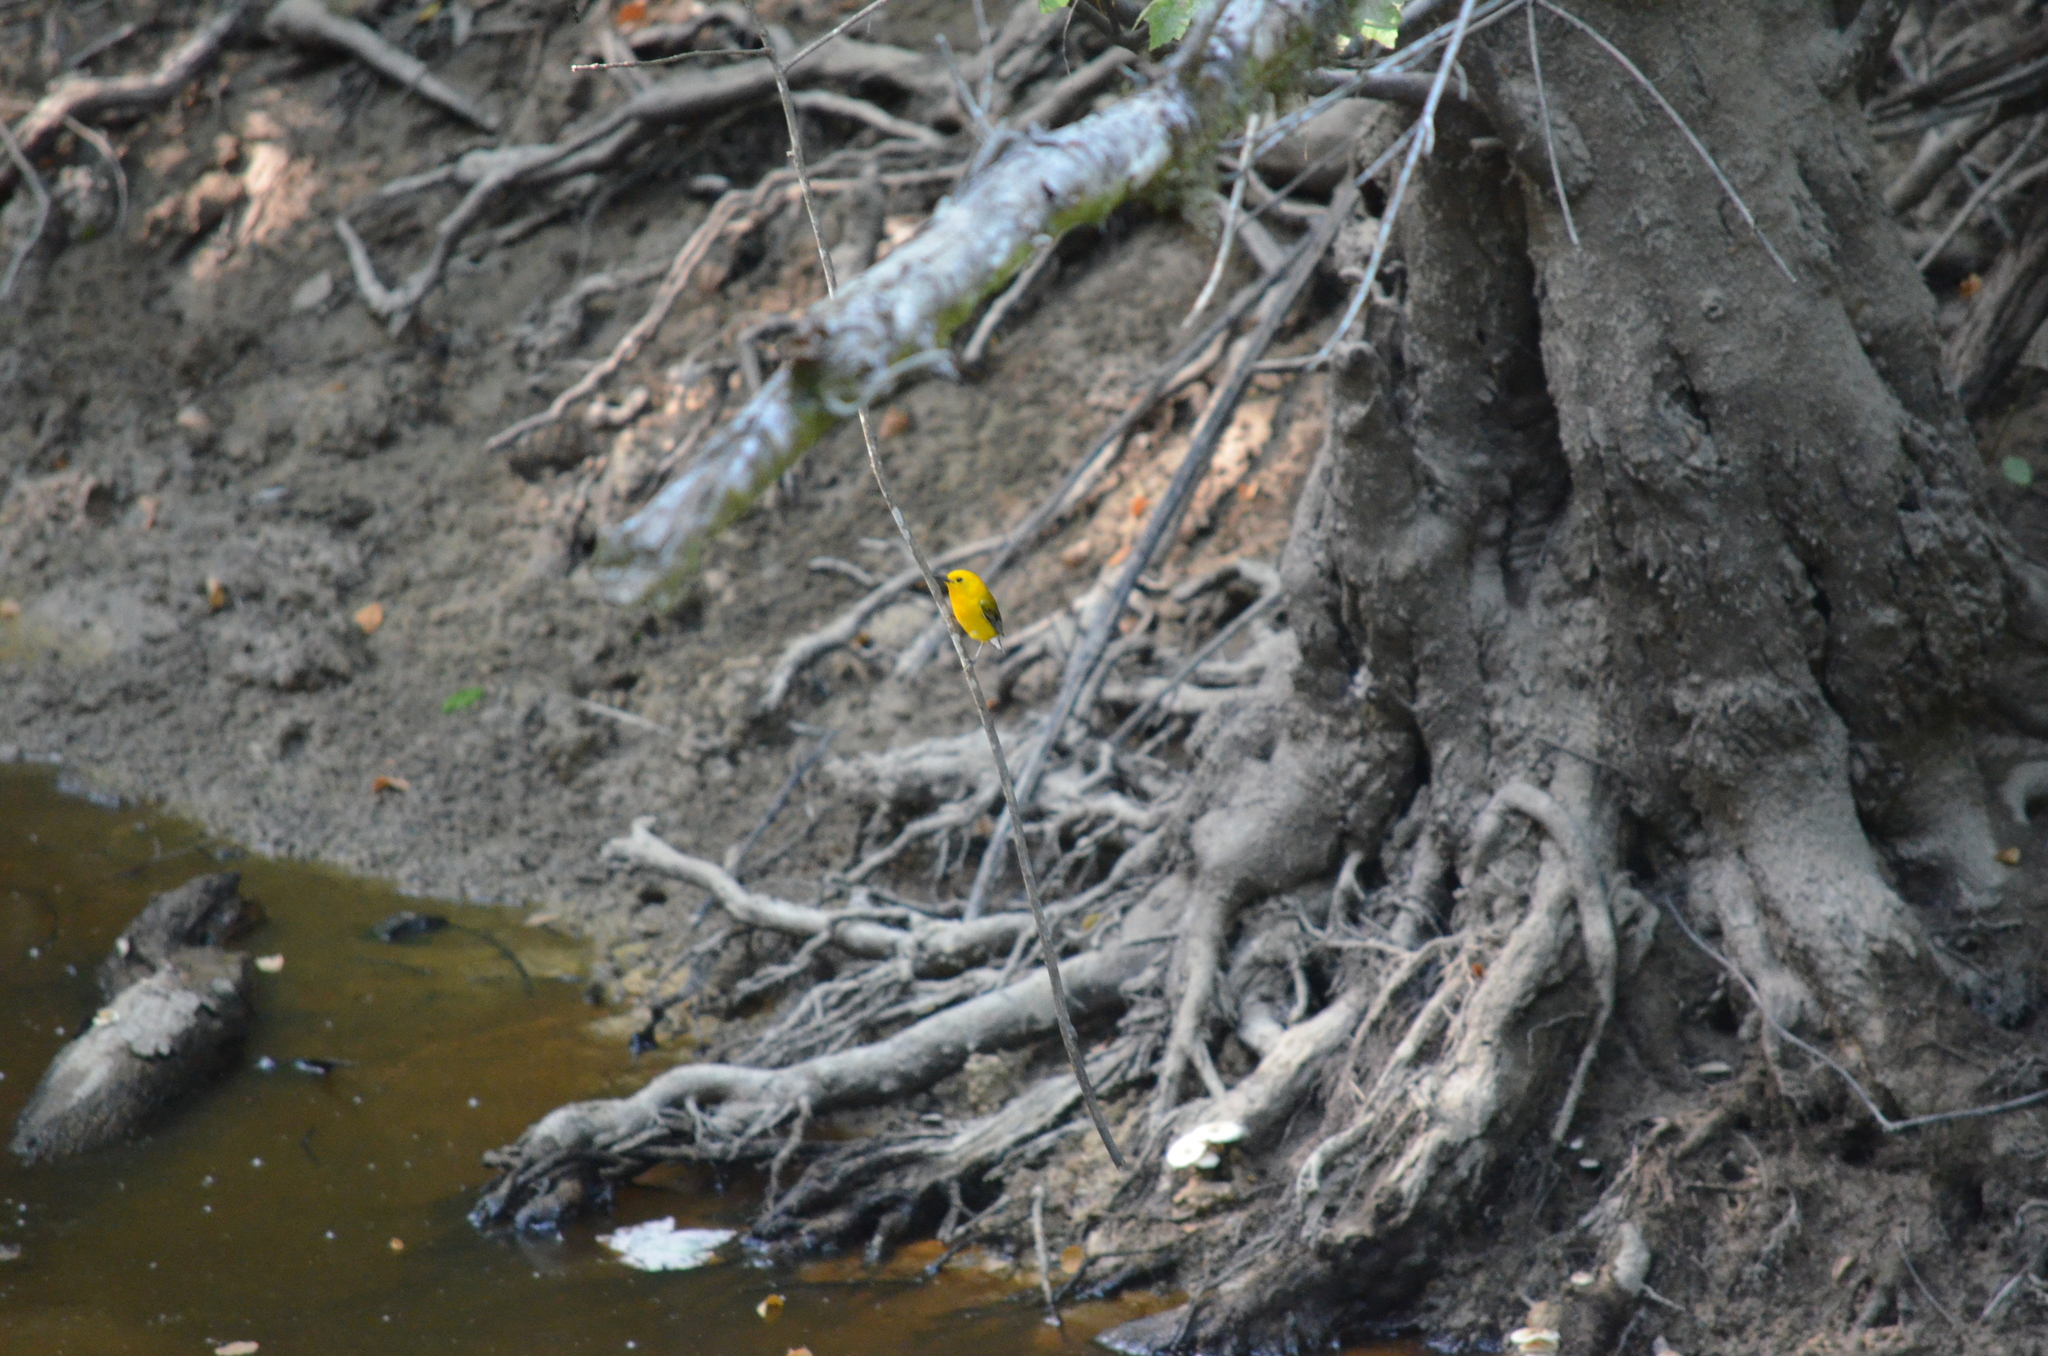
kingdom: Animalia
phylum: Chordata
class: Aves
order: Passeriformes
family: Parulidae
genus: Protonotaria
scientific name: Protonotaria citrea
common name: Prothonotary warbler
